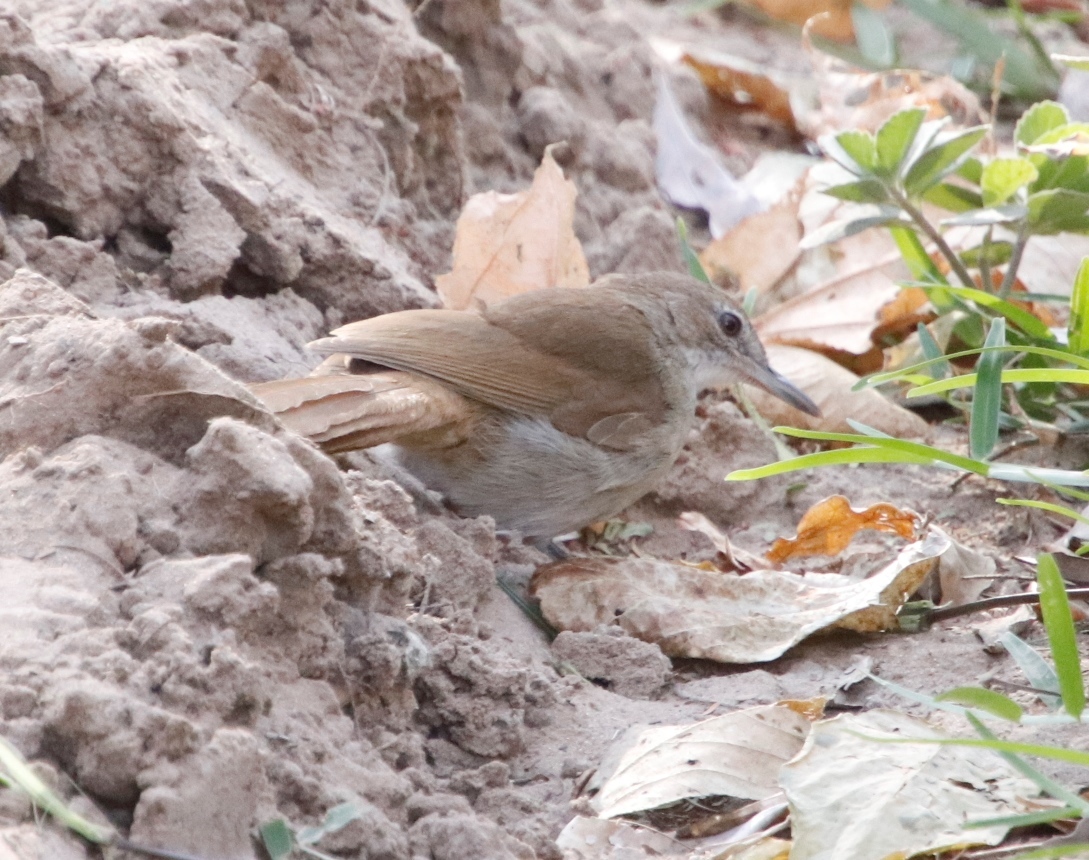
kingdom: Animalia
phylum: Chordata
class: Aves
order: Passeriformes
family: Pycnonotidae
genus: Phyllastrephus
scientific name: Phyllastrephus terrestris
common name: Terrestrial brownbul
